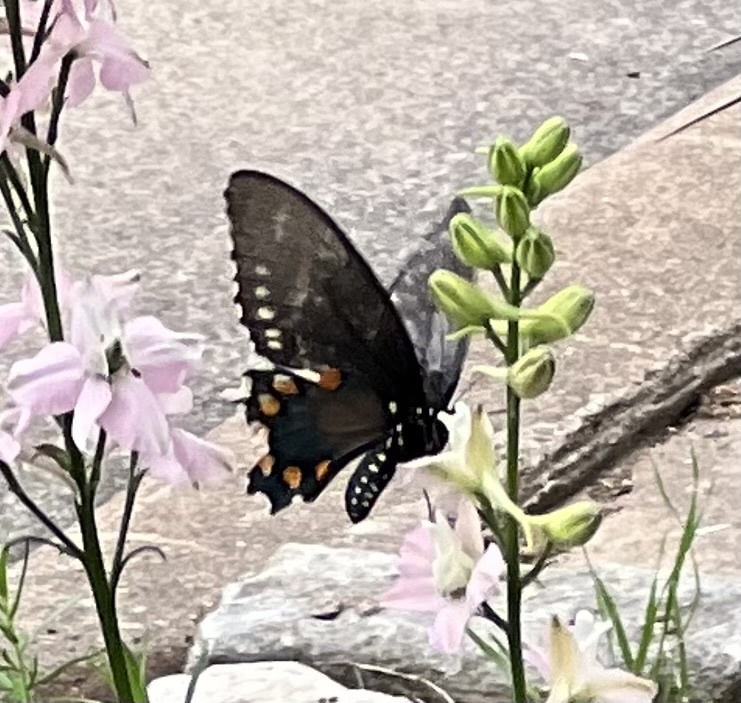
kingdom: Animalia
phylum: Arthropoda
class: Insecta
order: Lepidoptera
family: Papilionidae
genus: Battus
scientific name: Battus philenor
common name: Pipevine swallowtail
